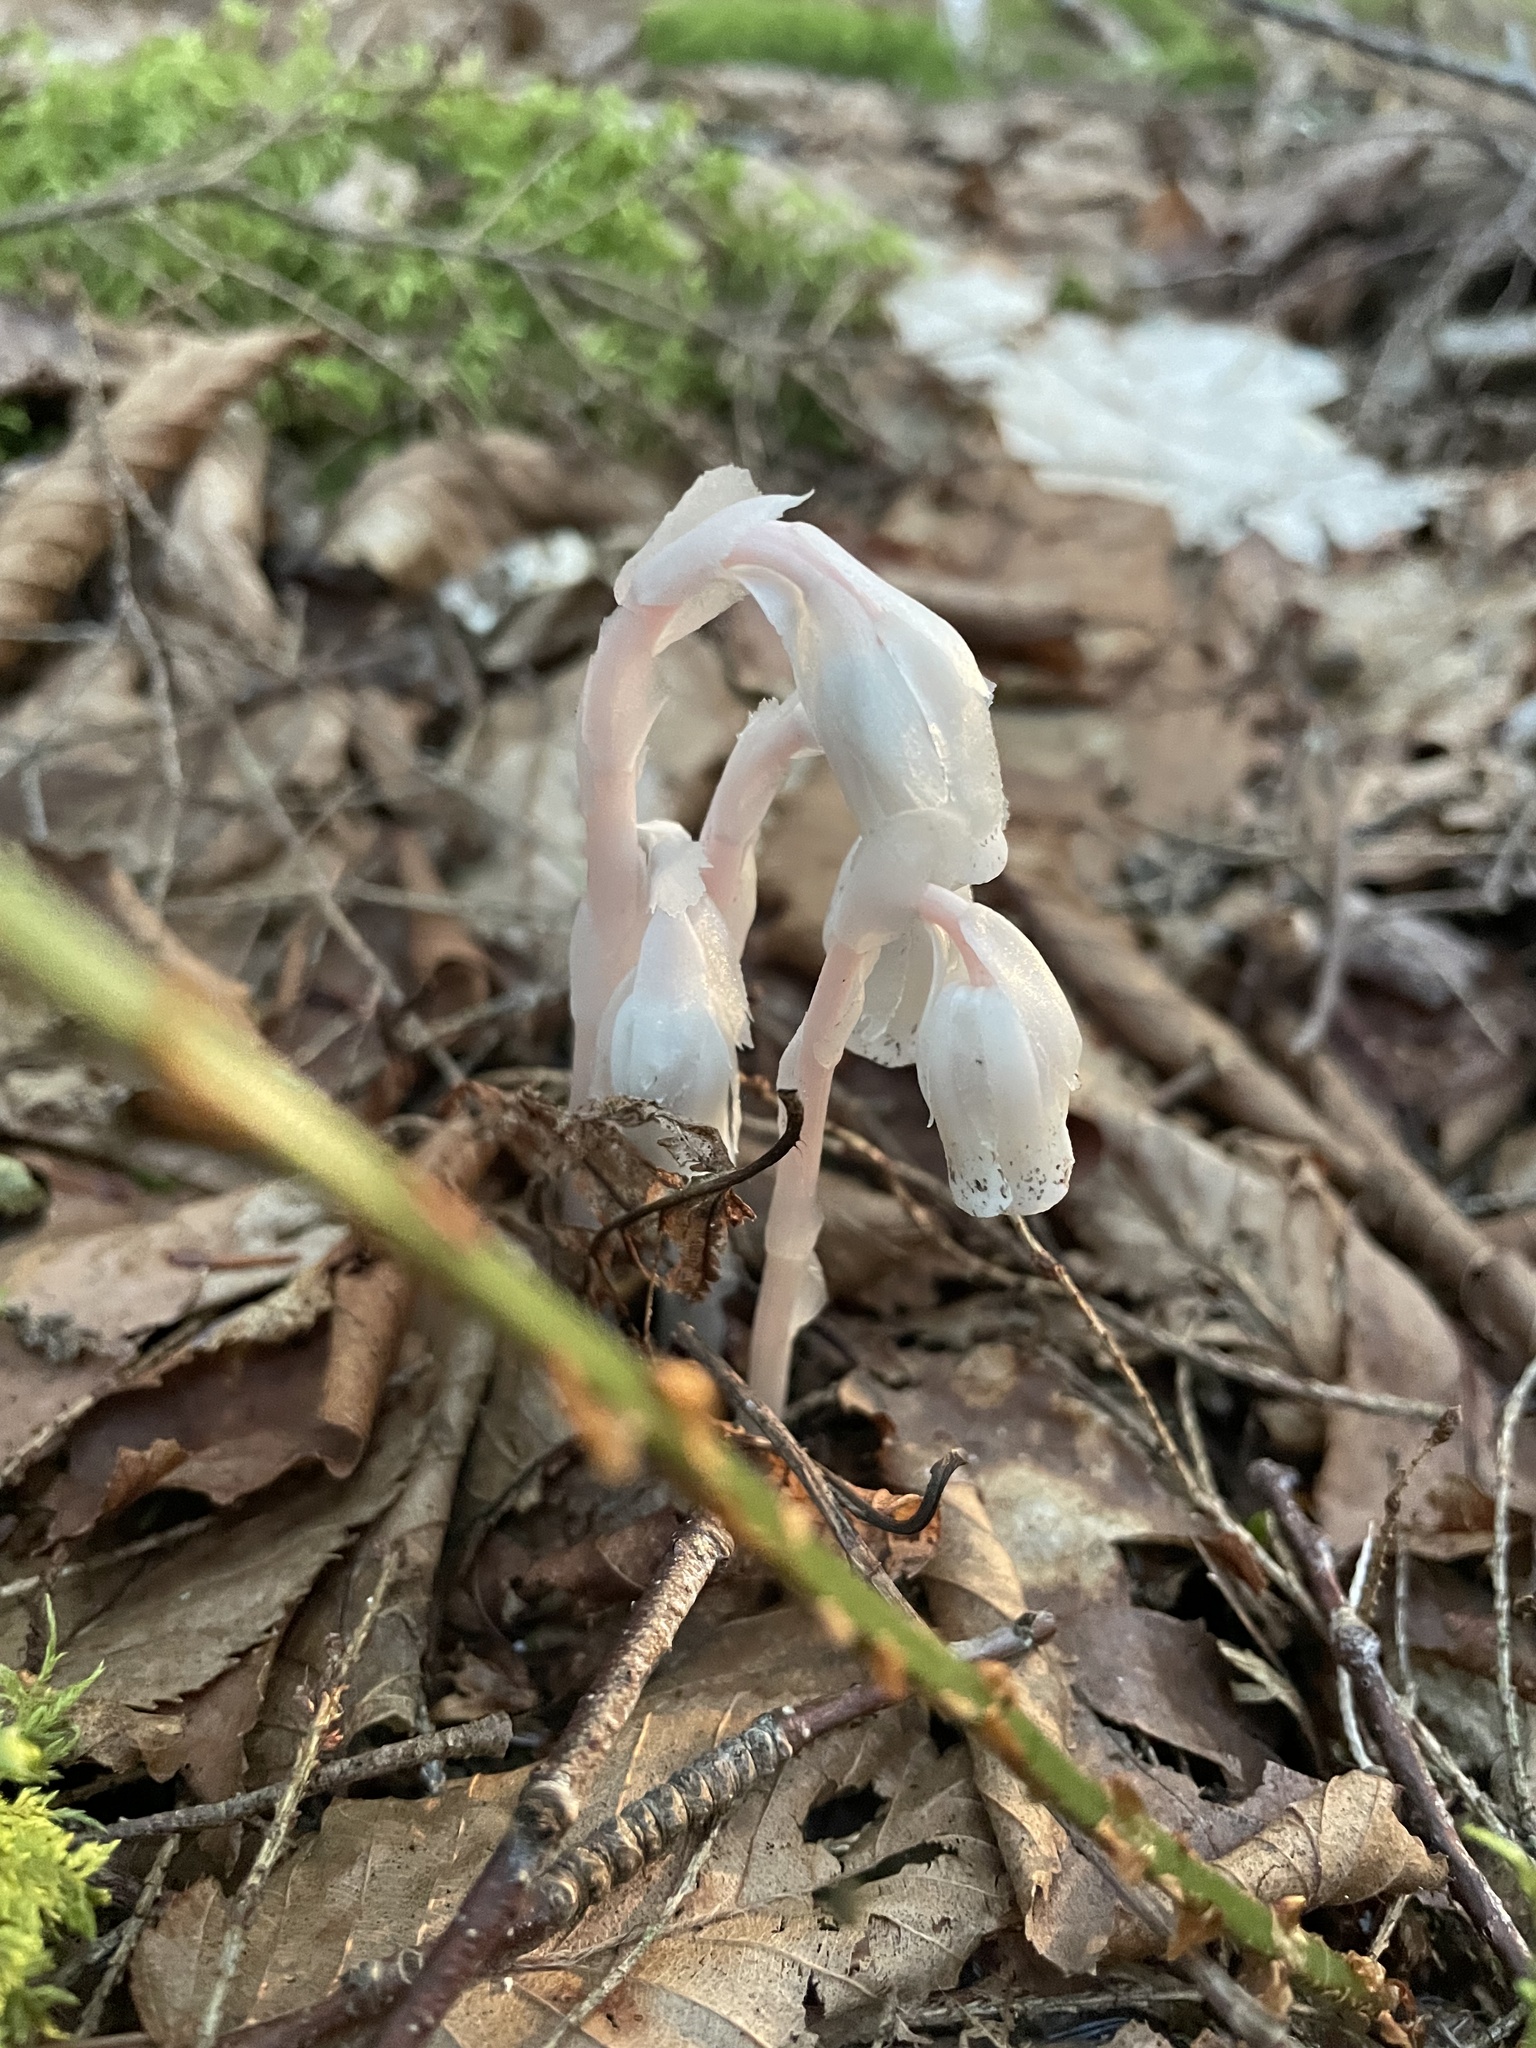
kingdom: Plantae
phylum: Tracheophyta
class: Magnoliopsida
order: Ericales
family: Ericaceae
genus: Monotropa
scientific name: Monotropa uniflora
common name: Convulsion root
